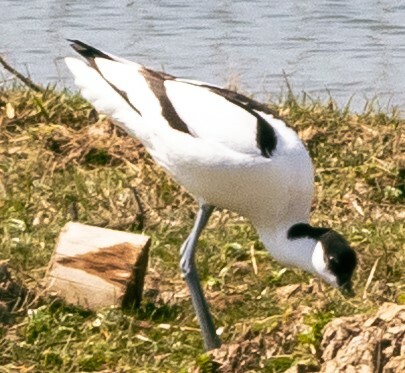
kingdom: Animalia
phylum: Chordata
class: Aves
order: Charadriiformes
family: Recurvirostridae
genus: Recurvirostra
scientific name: Recurvirostra avosetta
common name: Pied avocet
